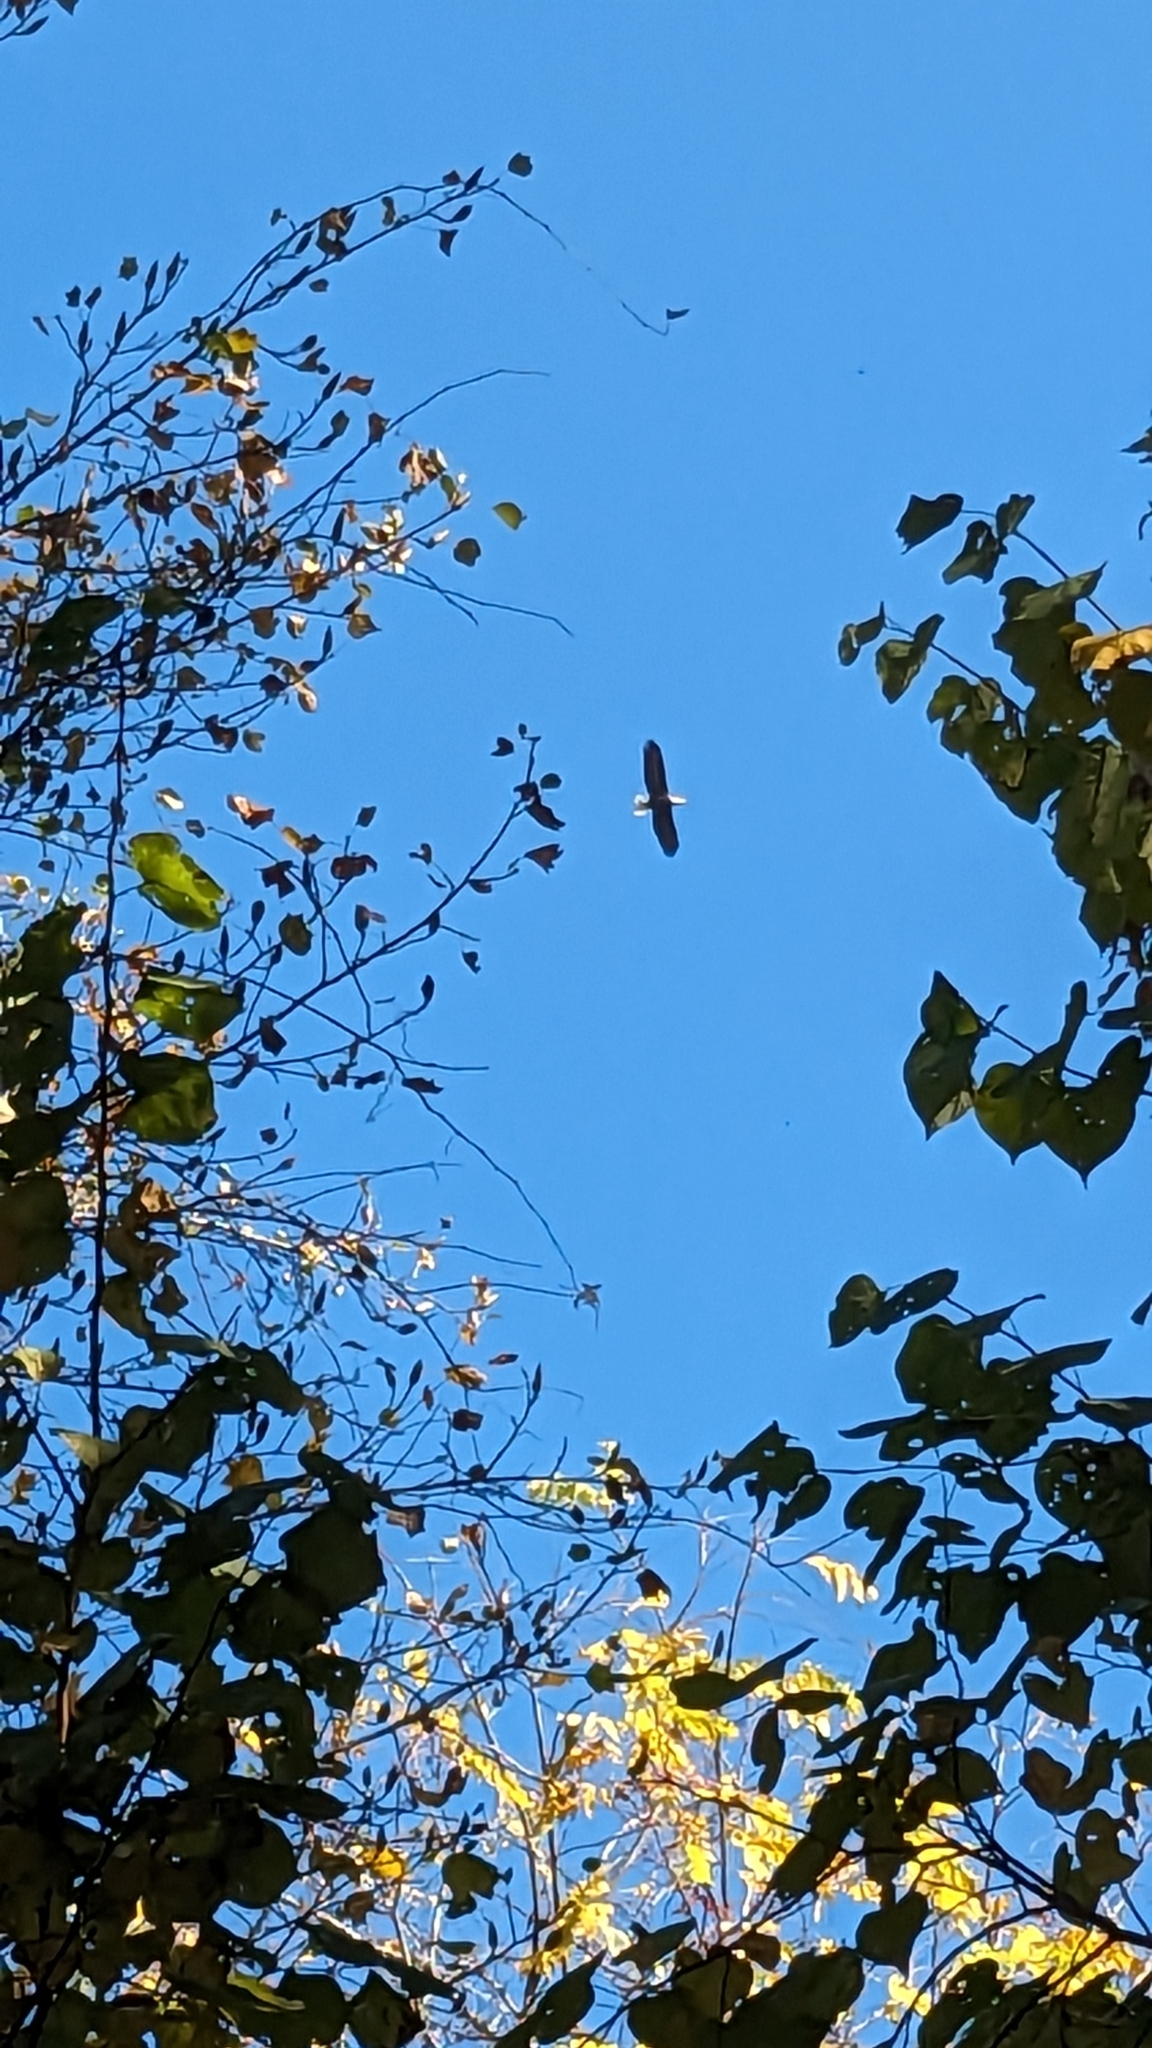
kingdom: Animalia
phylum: Chordata
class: Aves
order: Accipitriformes
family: Accipitridae
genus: Haliaeetus
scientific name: Haliaeetus leucocephalus
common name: Bald eagle
